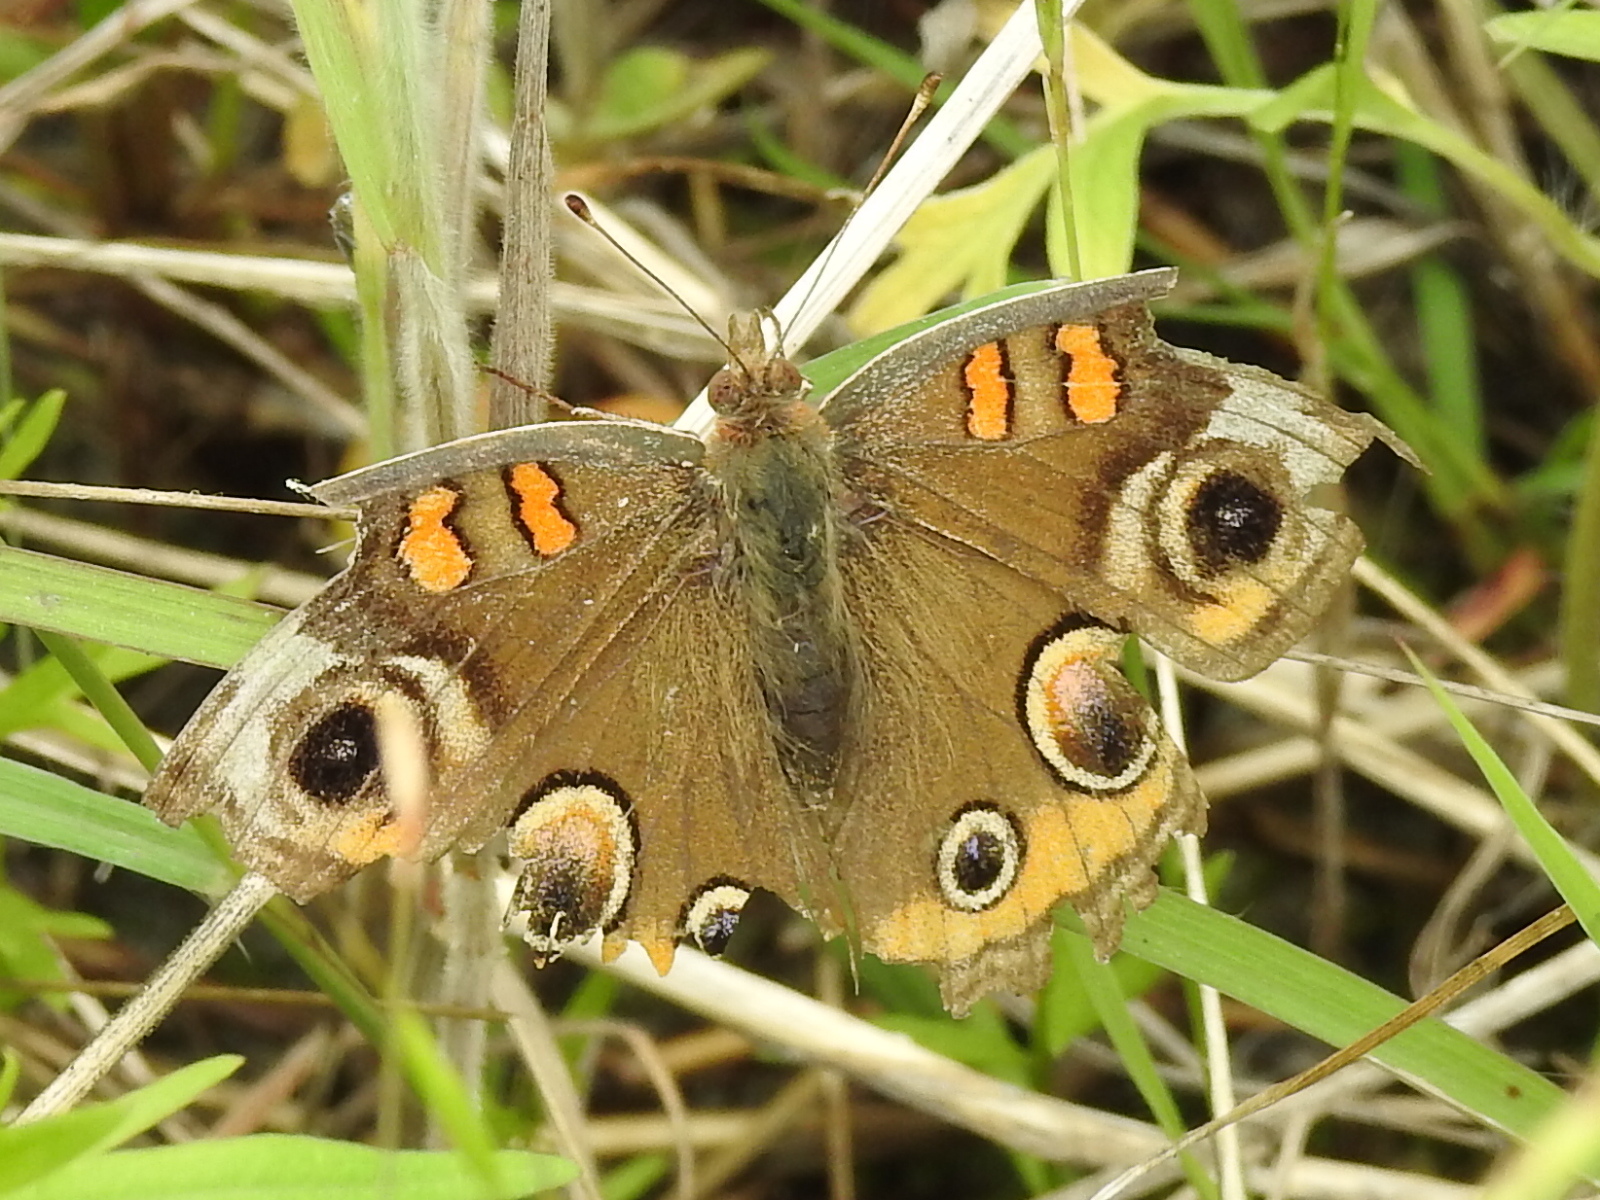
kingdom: Animalia
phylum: Arthropoda
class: Insecta
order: Lepidoptera
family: Nymphalidae
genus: Junonia
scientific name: Junonia coenia
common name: Common buckeye
